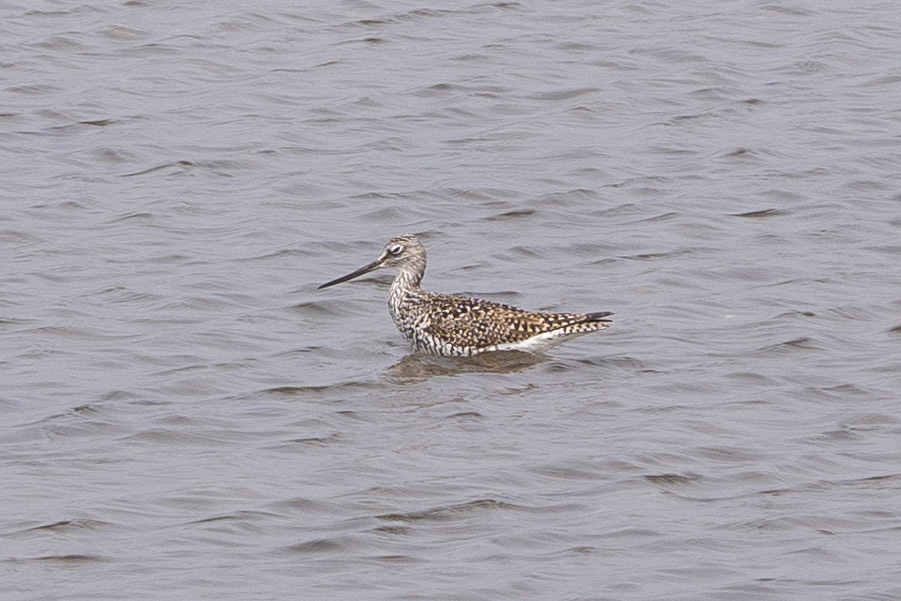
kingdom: Animalia
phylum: Chordata
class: Aves
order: Charadriiformes
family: Scolopacidae
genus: Tringa
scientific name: Tringa melanoleuca
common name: Greater yellowlegs
